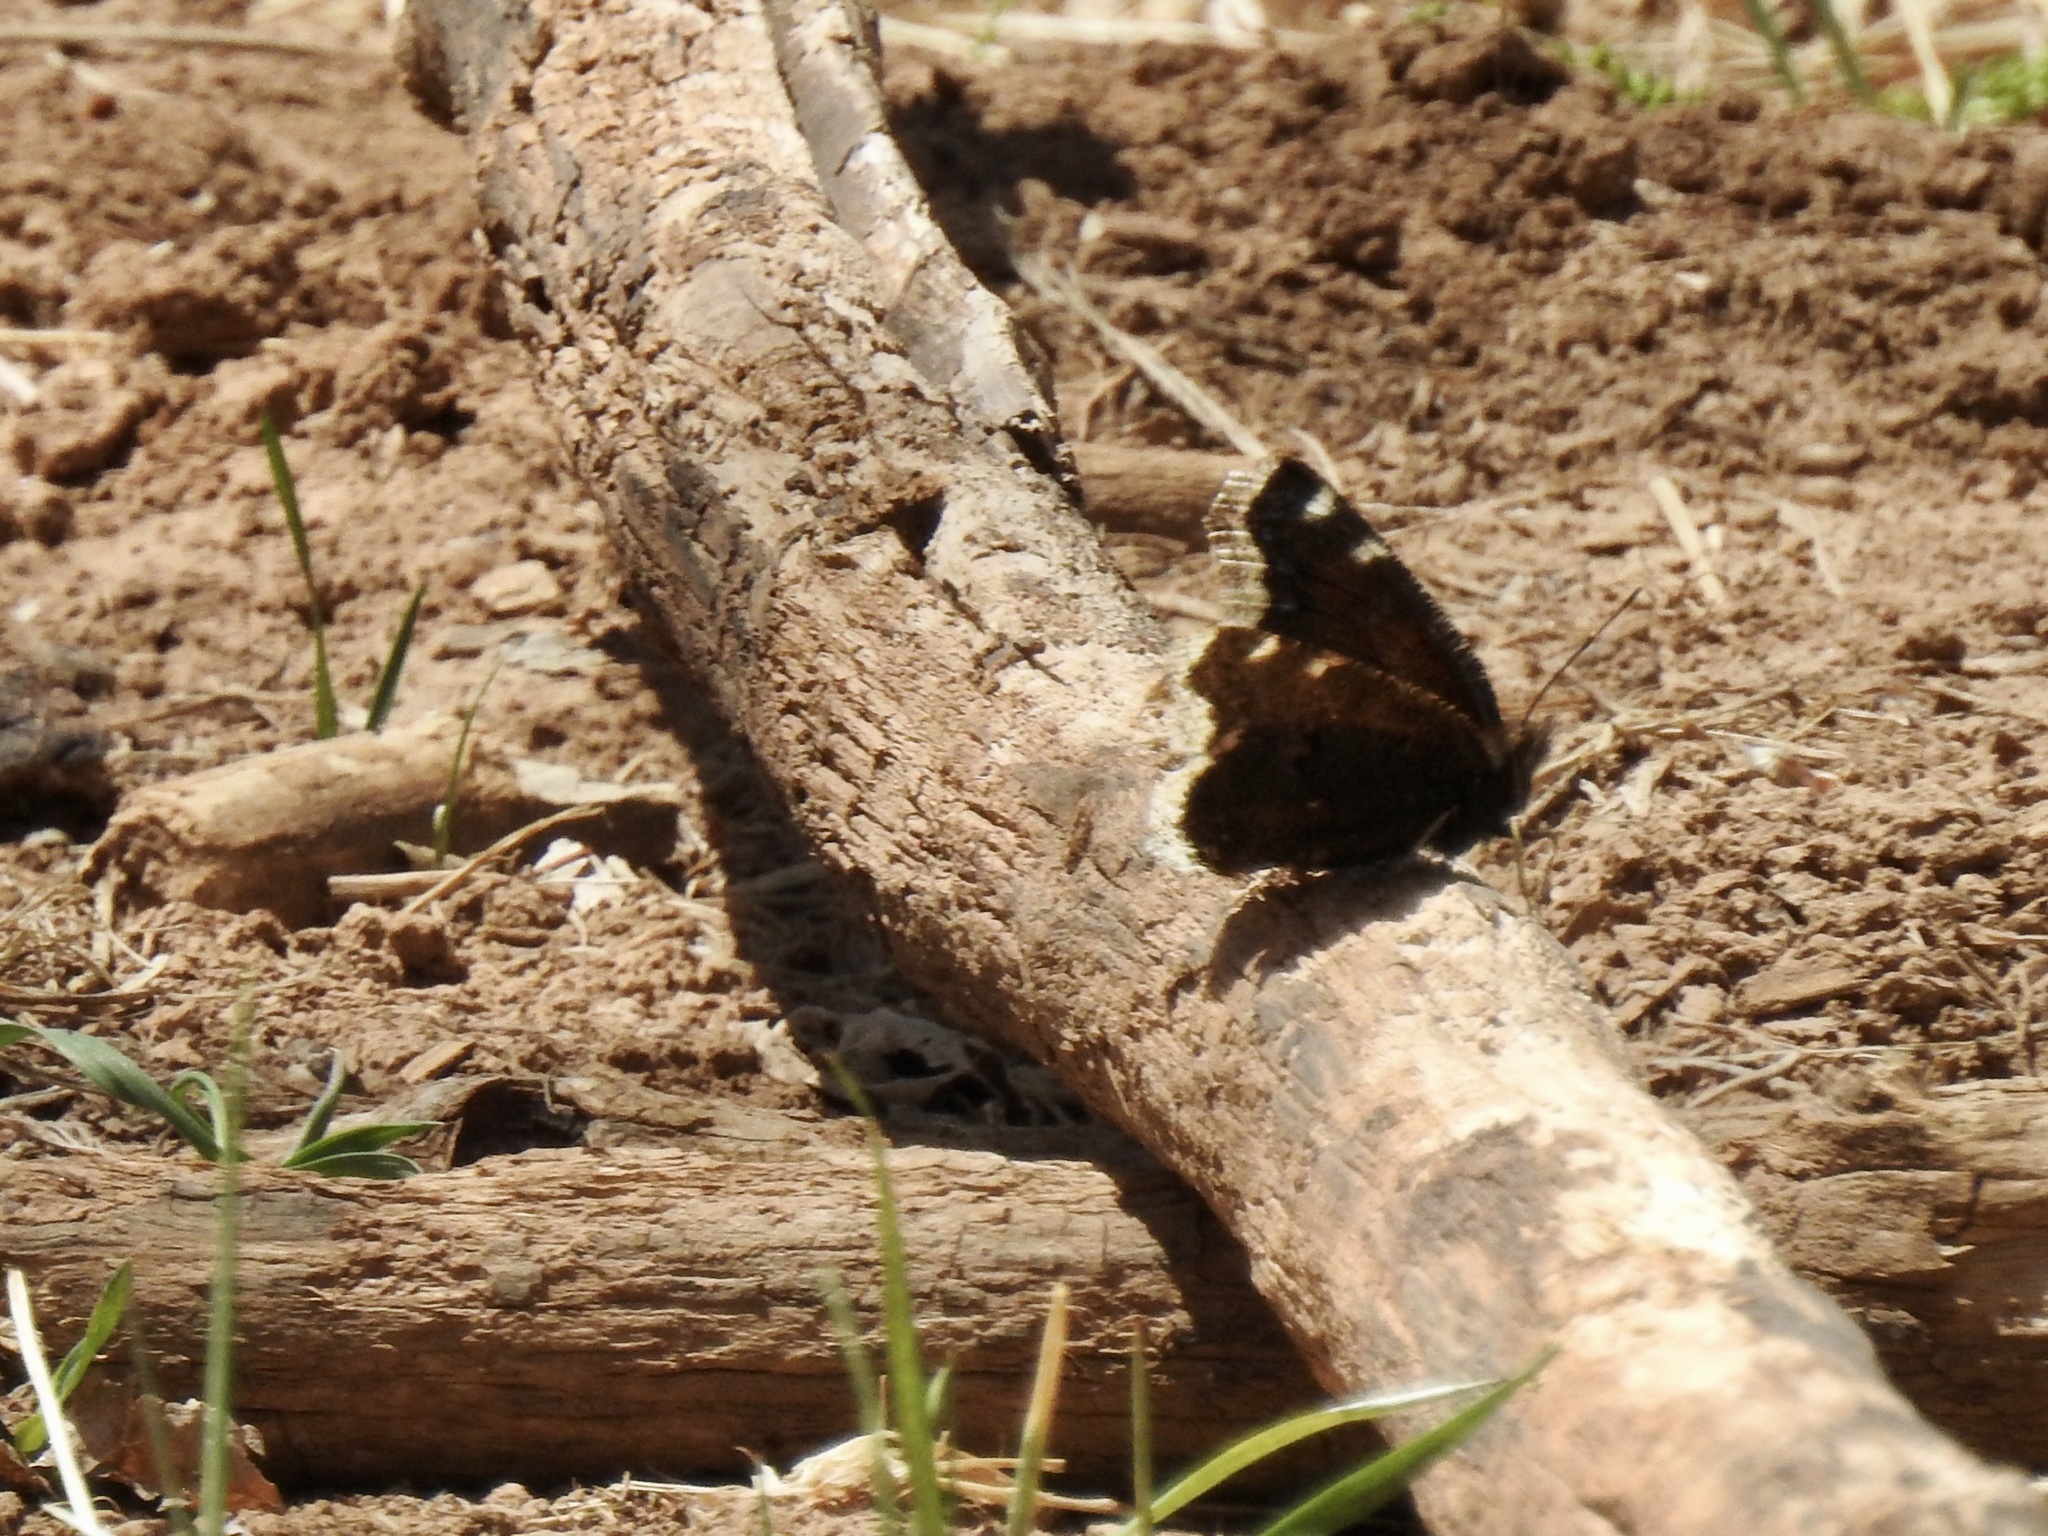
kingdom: Animalia
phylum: Arthropoda
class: Insecta
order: Lepidoptera
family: Nymphalidae
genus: Nymphalis
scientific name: Nymphalis antiopa
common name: Camberwell beauty
